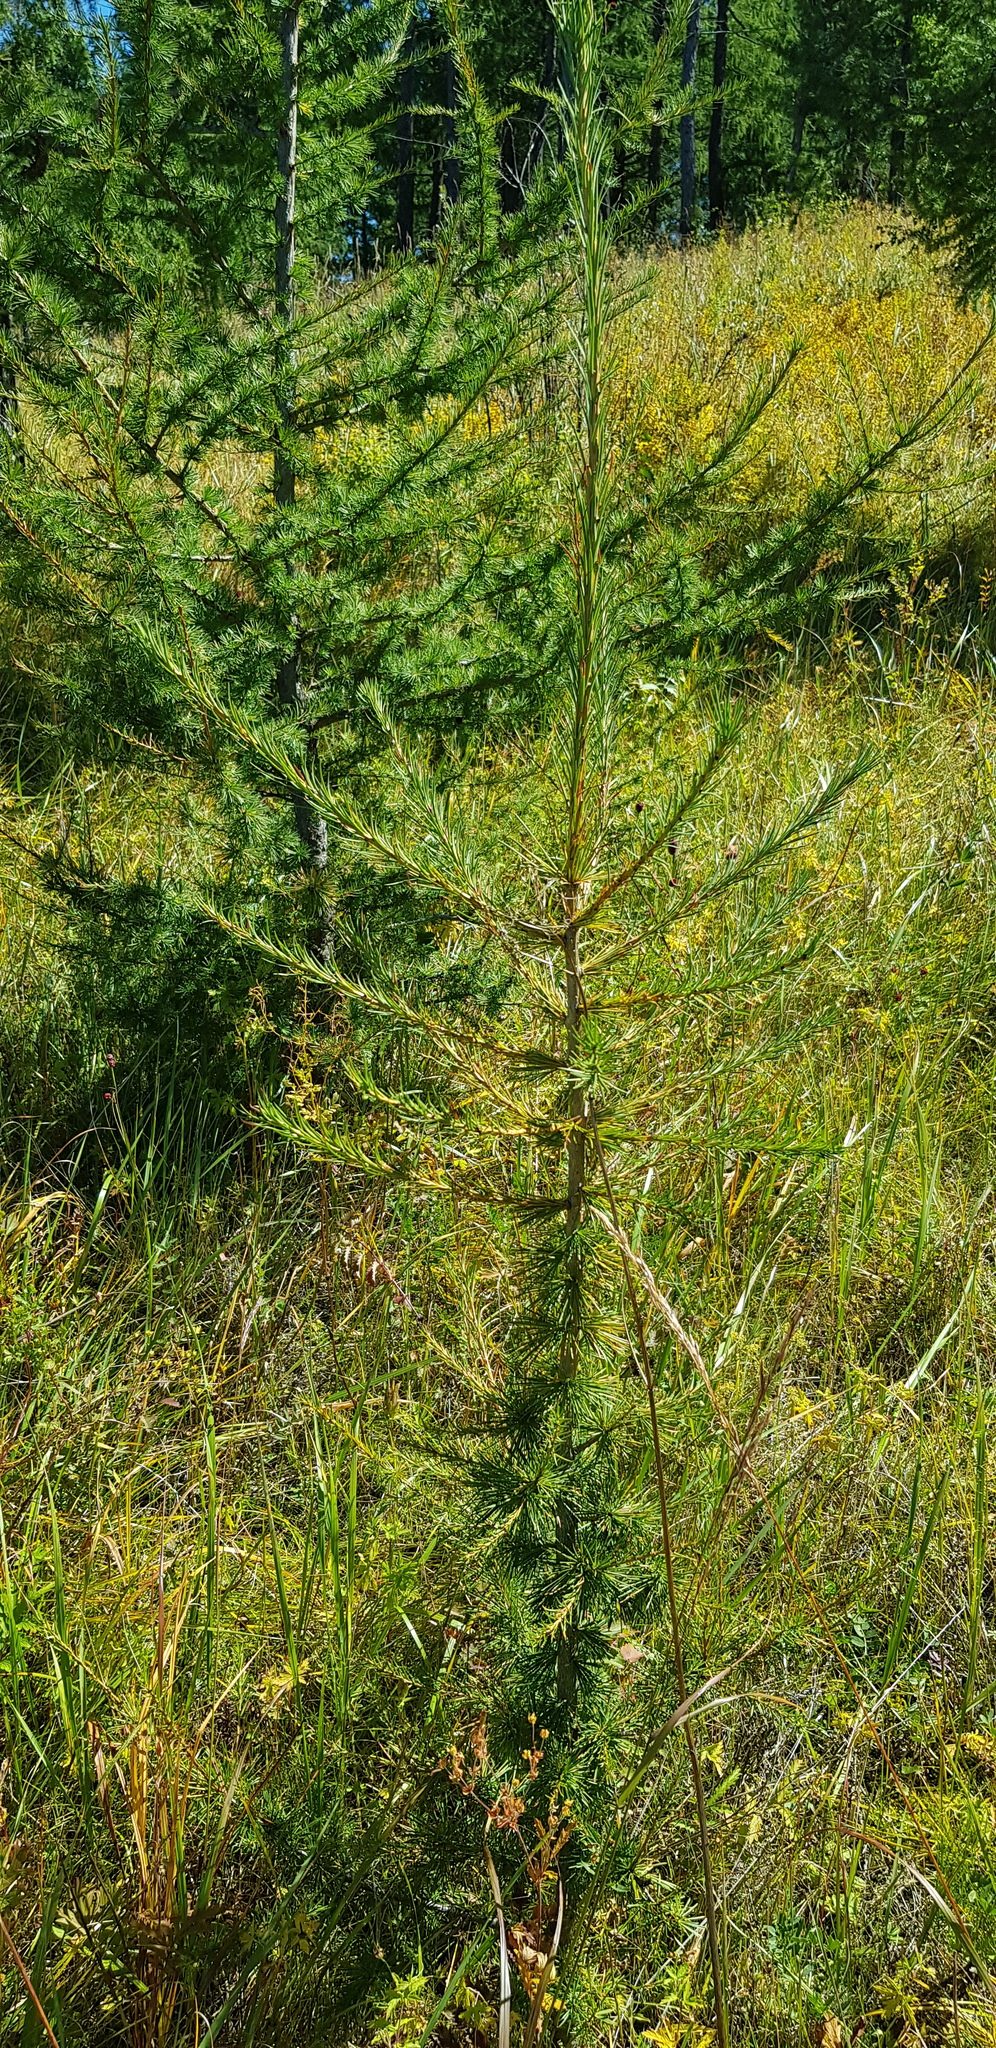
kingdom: Plantae
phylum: Tracheophyta
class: Pinopsida
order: Pinales
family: Pinaceae
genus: Larix
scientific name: Larix gmelinii
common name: Dahurian larch
